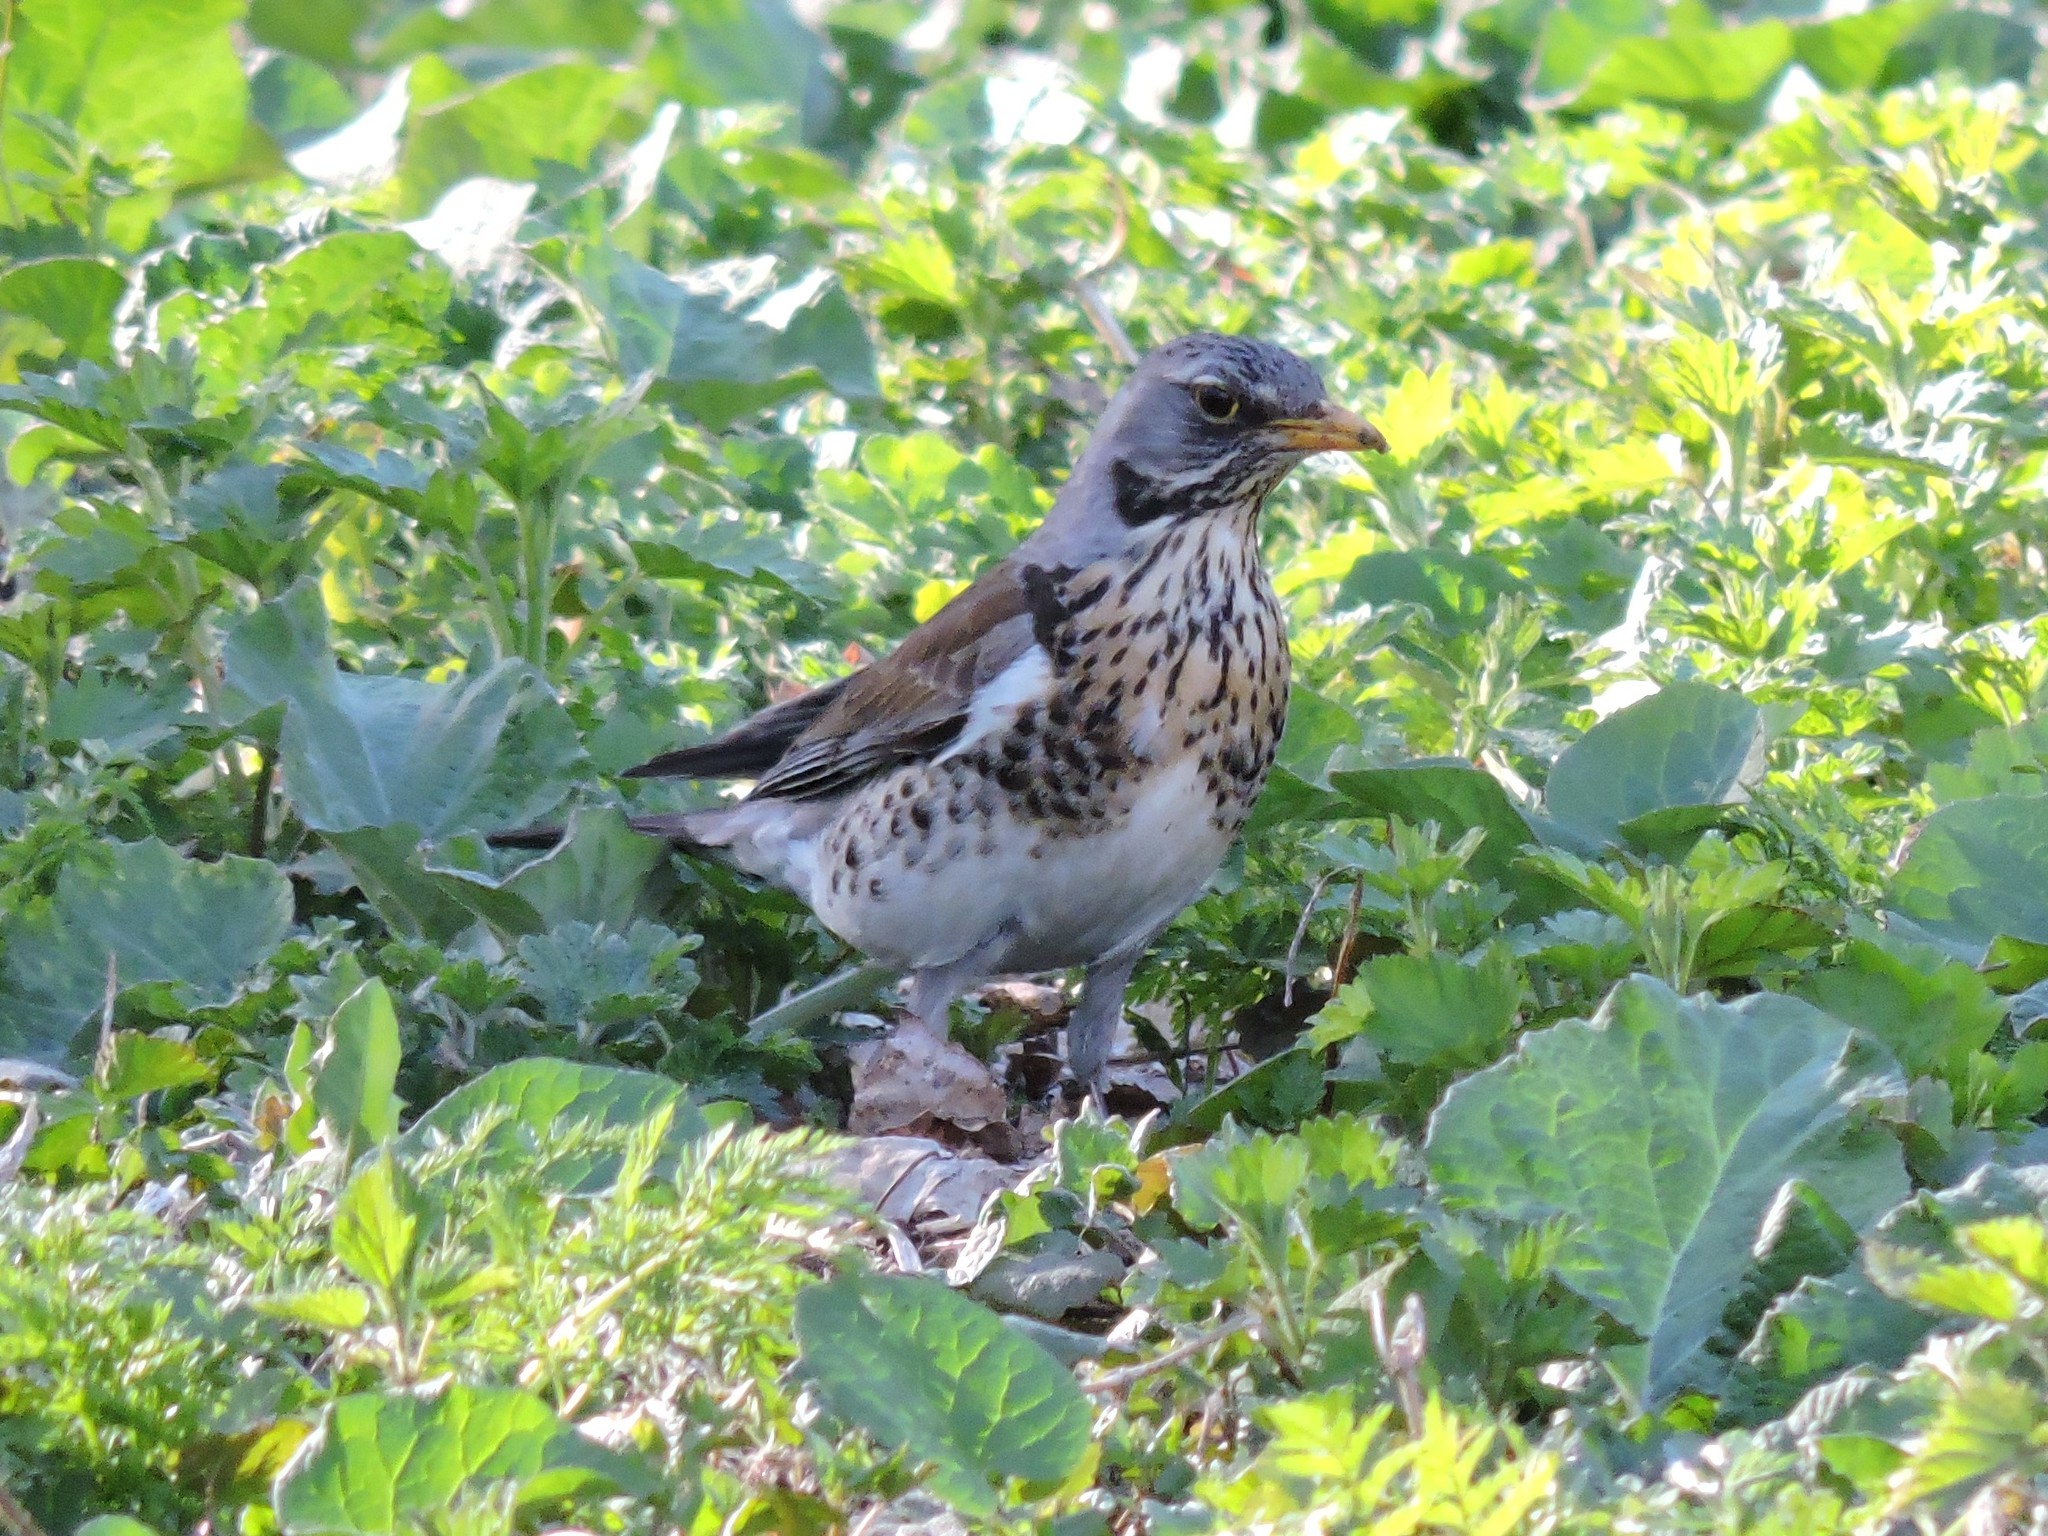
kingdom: Animalia
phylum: Chordata
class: Aves
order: Passeriformes
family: Turdidae
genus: Turdus
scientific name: Turdus pilaris
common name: Fieldfare
